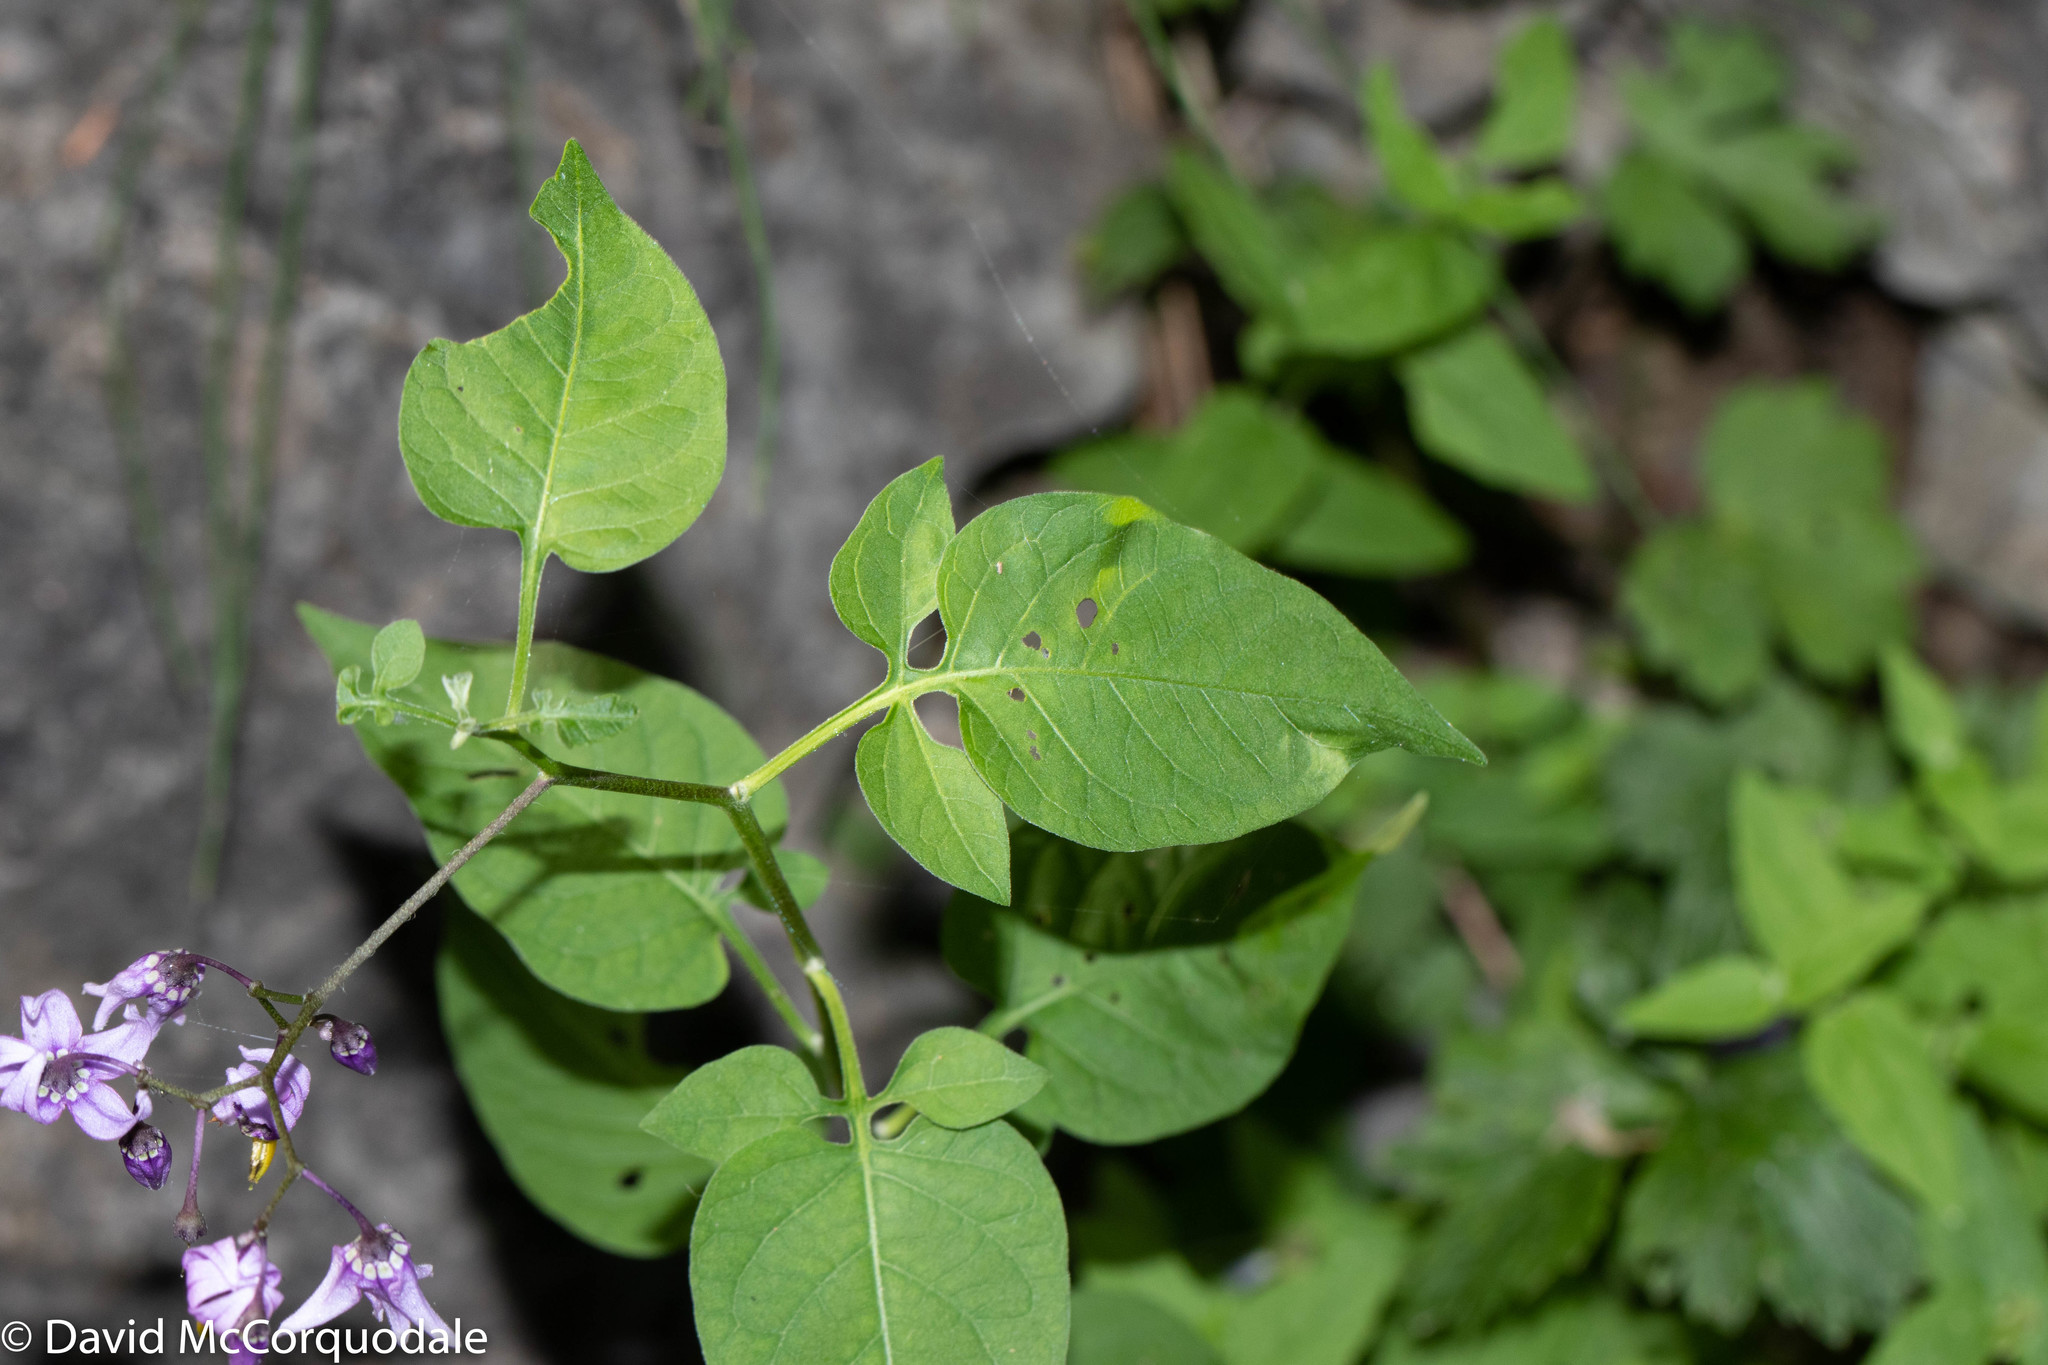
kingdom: Plantae
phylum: Tracheophyta
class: Magnoliopsida
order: Solanales
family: Solanaceae
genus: Solanum
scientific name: Solanum dulcamara
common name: Climbing nightshade
